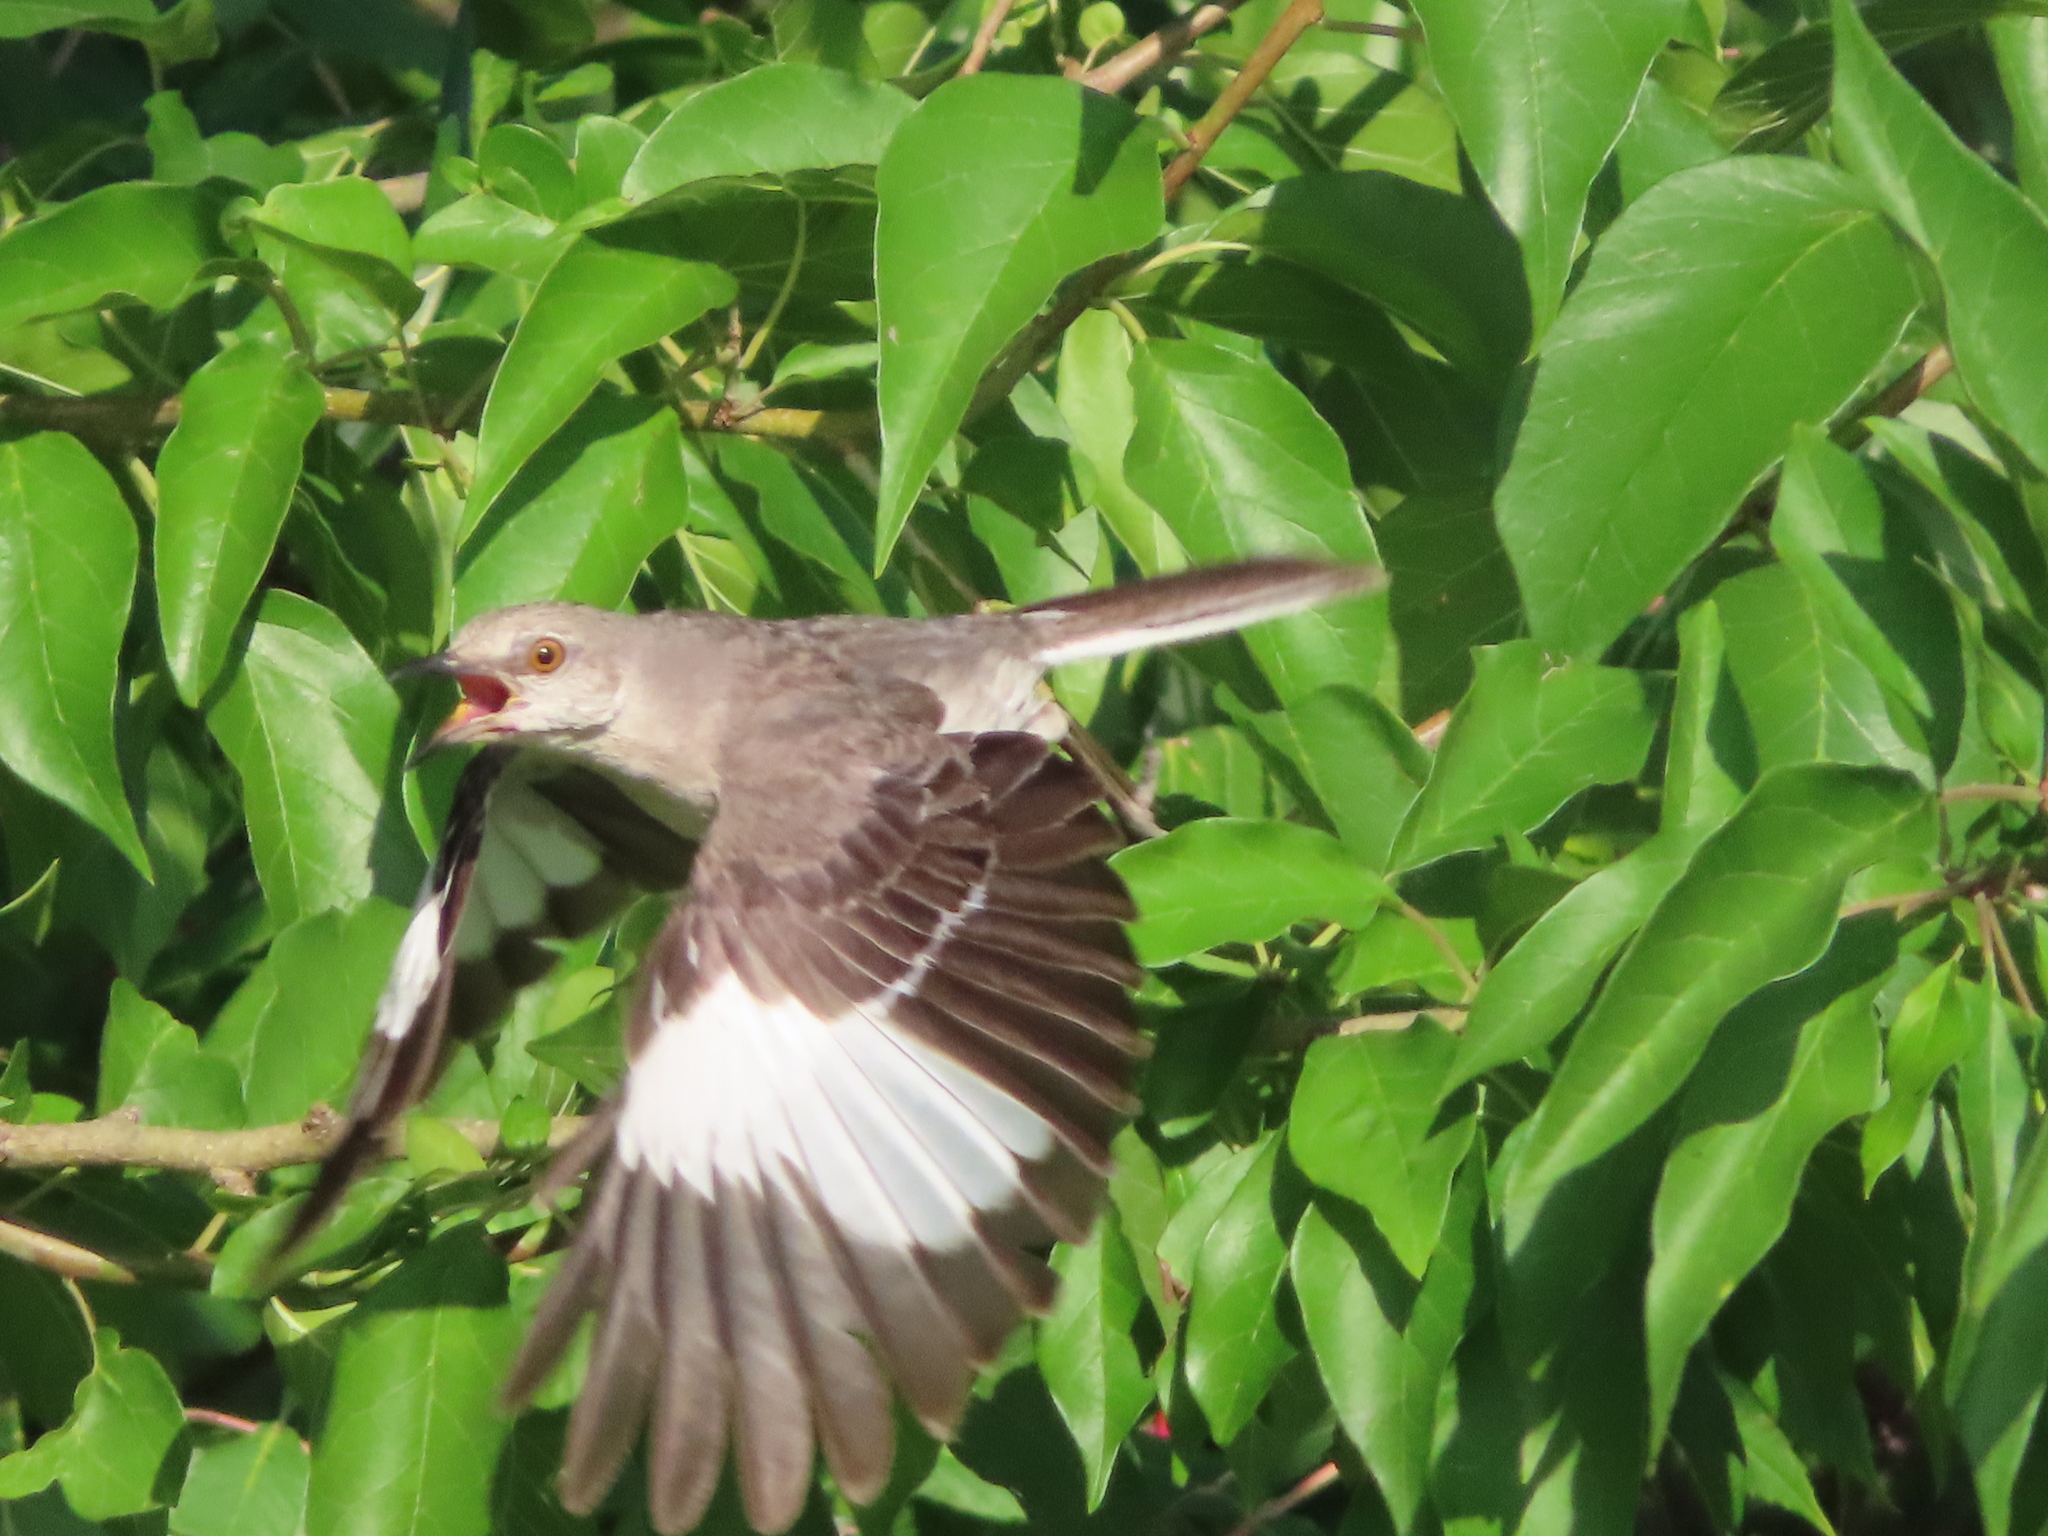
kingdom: Animalia
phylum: Chordata
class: Aves
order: Passeriformes
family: Mimidae
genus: Mimus
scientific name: Mimus polyglottos
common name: Northern mockingbird
